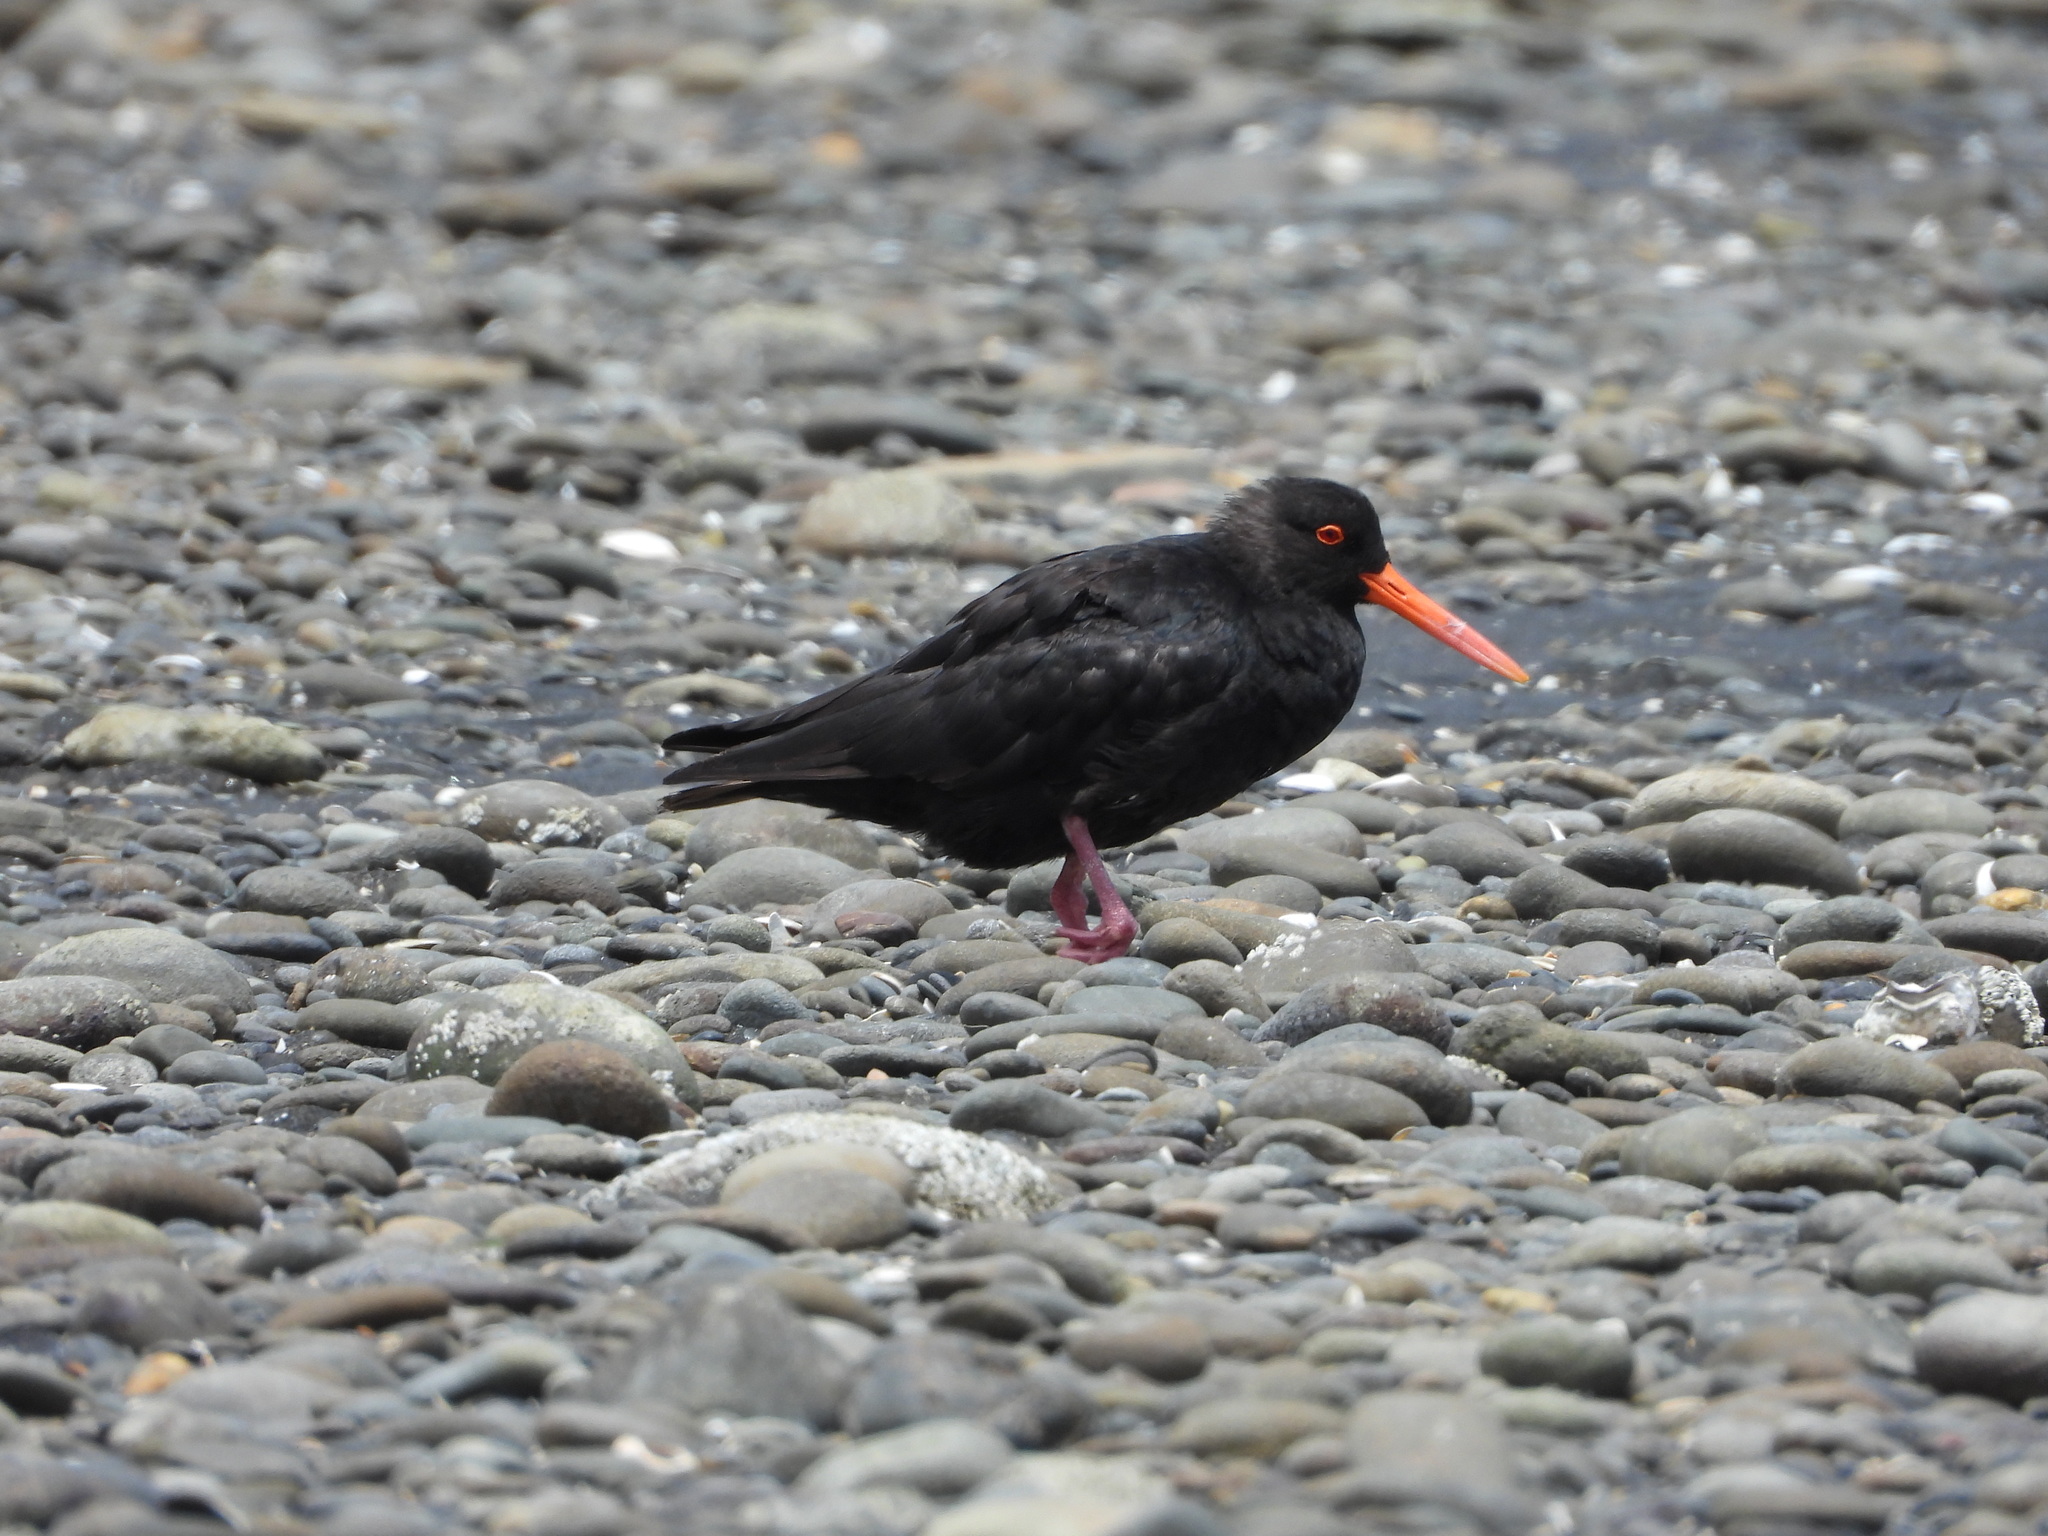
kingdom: Animalia
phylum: Chordata
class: Aves
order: Charadriiformes
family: Haematopodidae
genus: Haematopus
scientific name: Haematopus unicolor
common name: Variable oystercatcher
